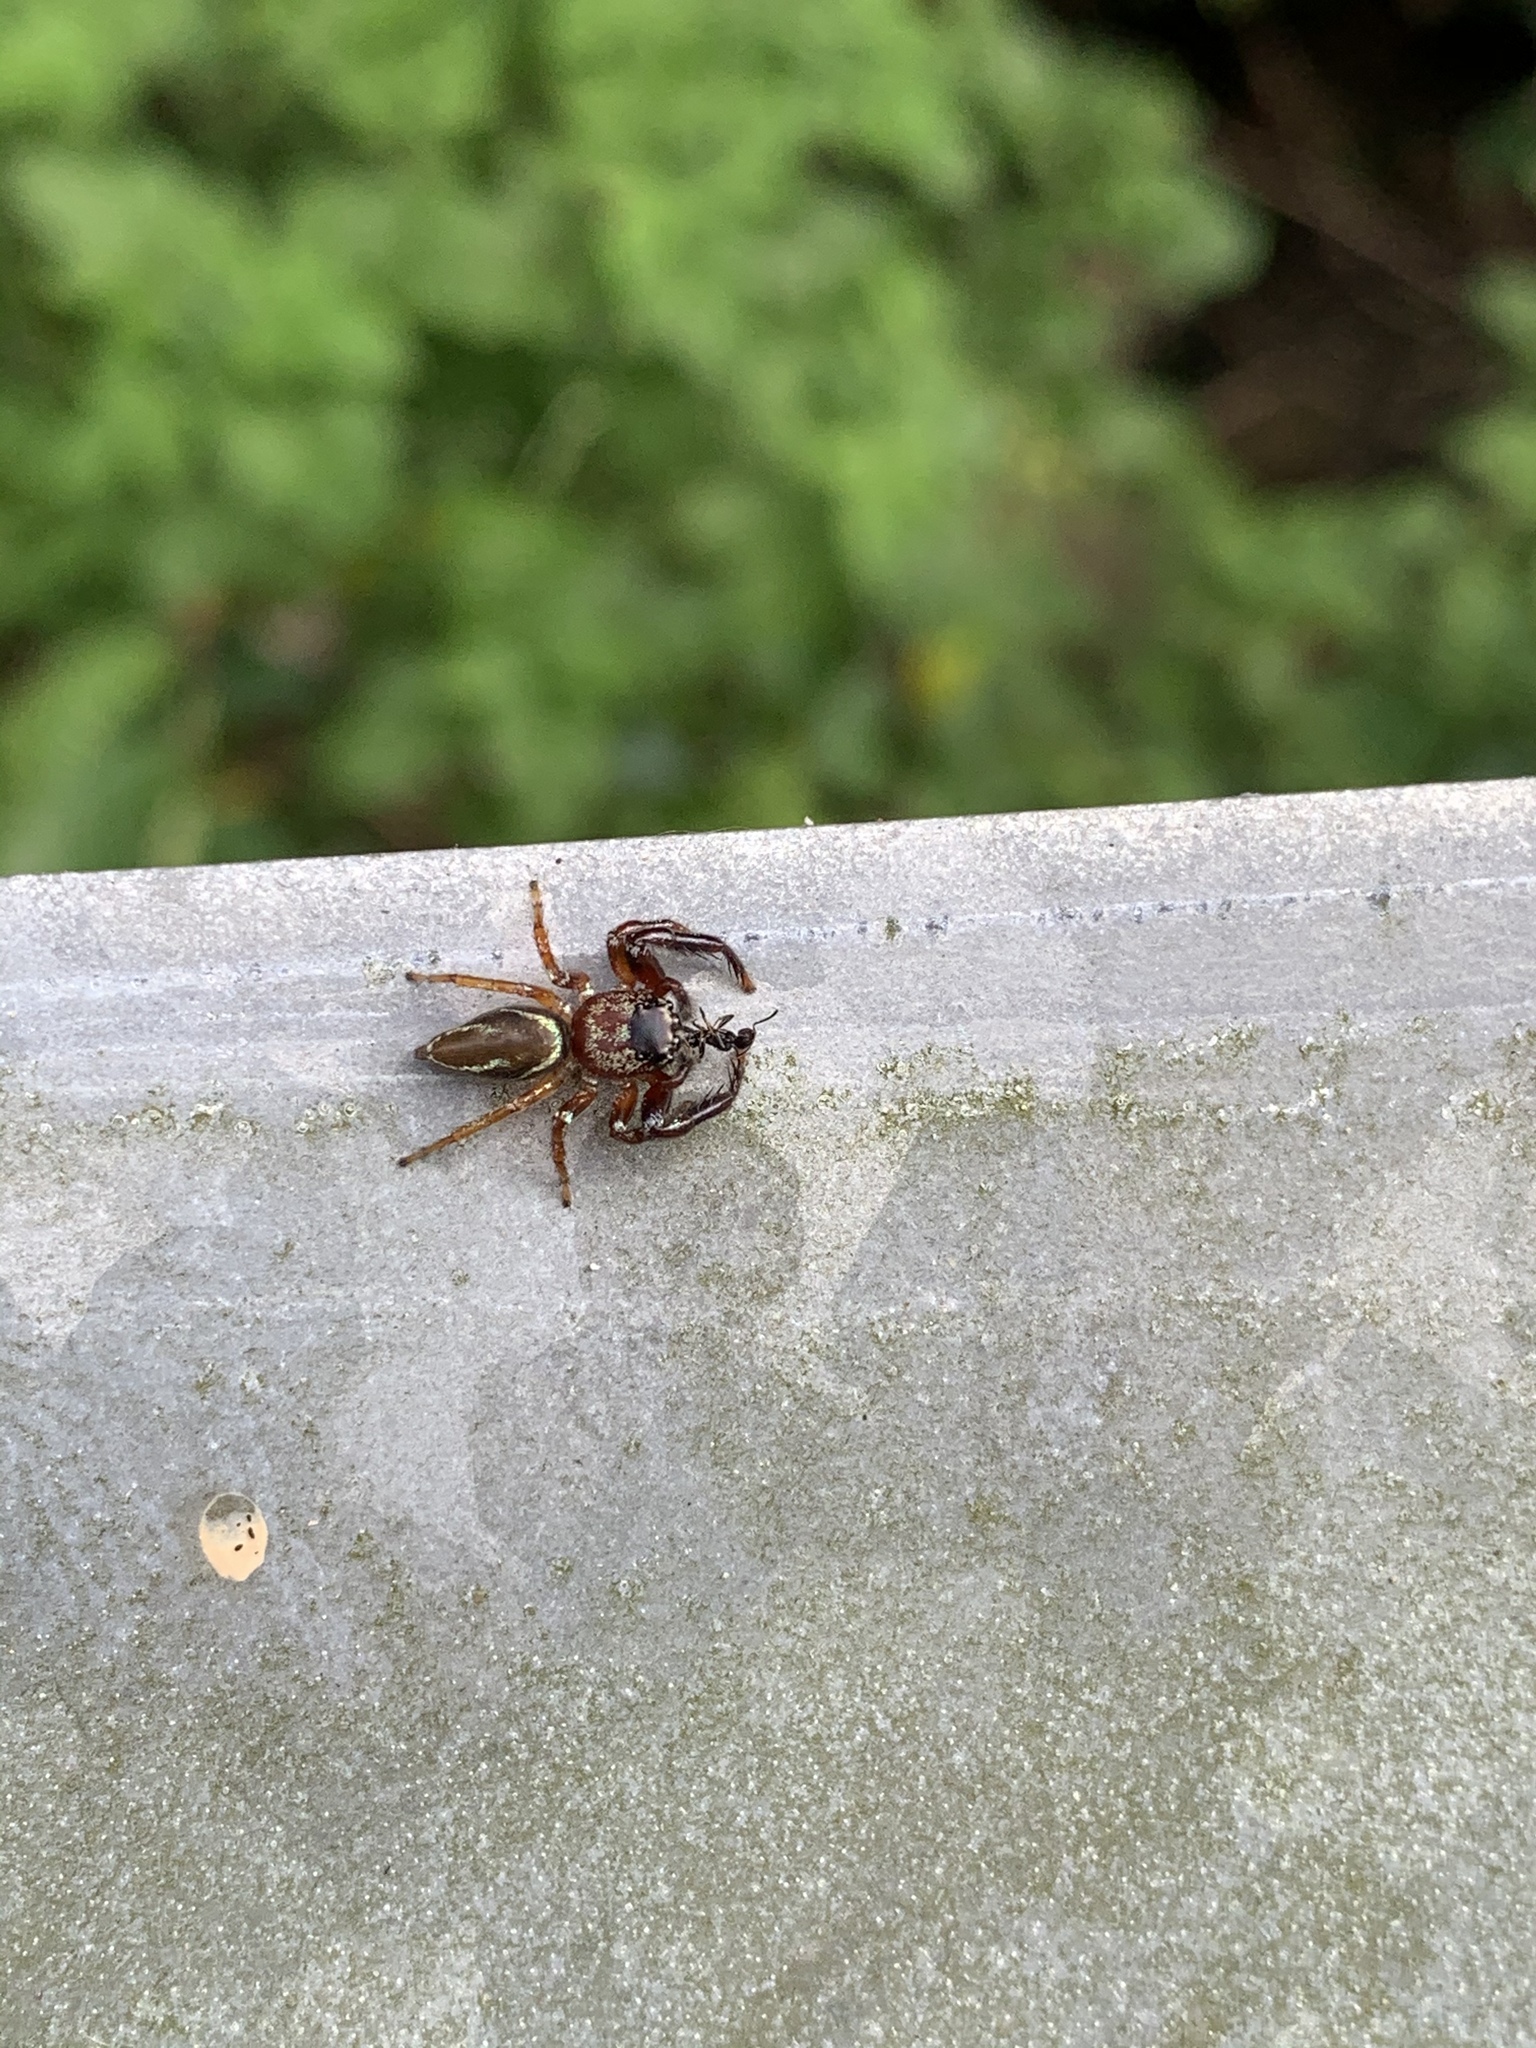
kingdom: Animalia
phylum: Arthropoda
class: Arachnida
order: Araneae
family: Salticidae
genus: Thiania
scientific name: Thiania suboppressa
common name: Jumping spider
